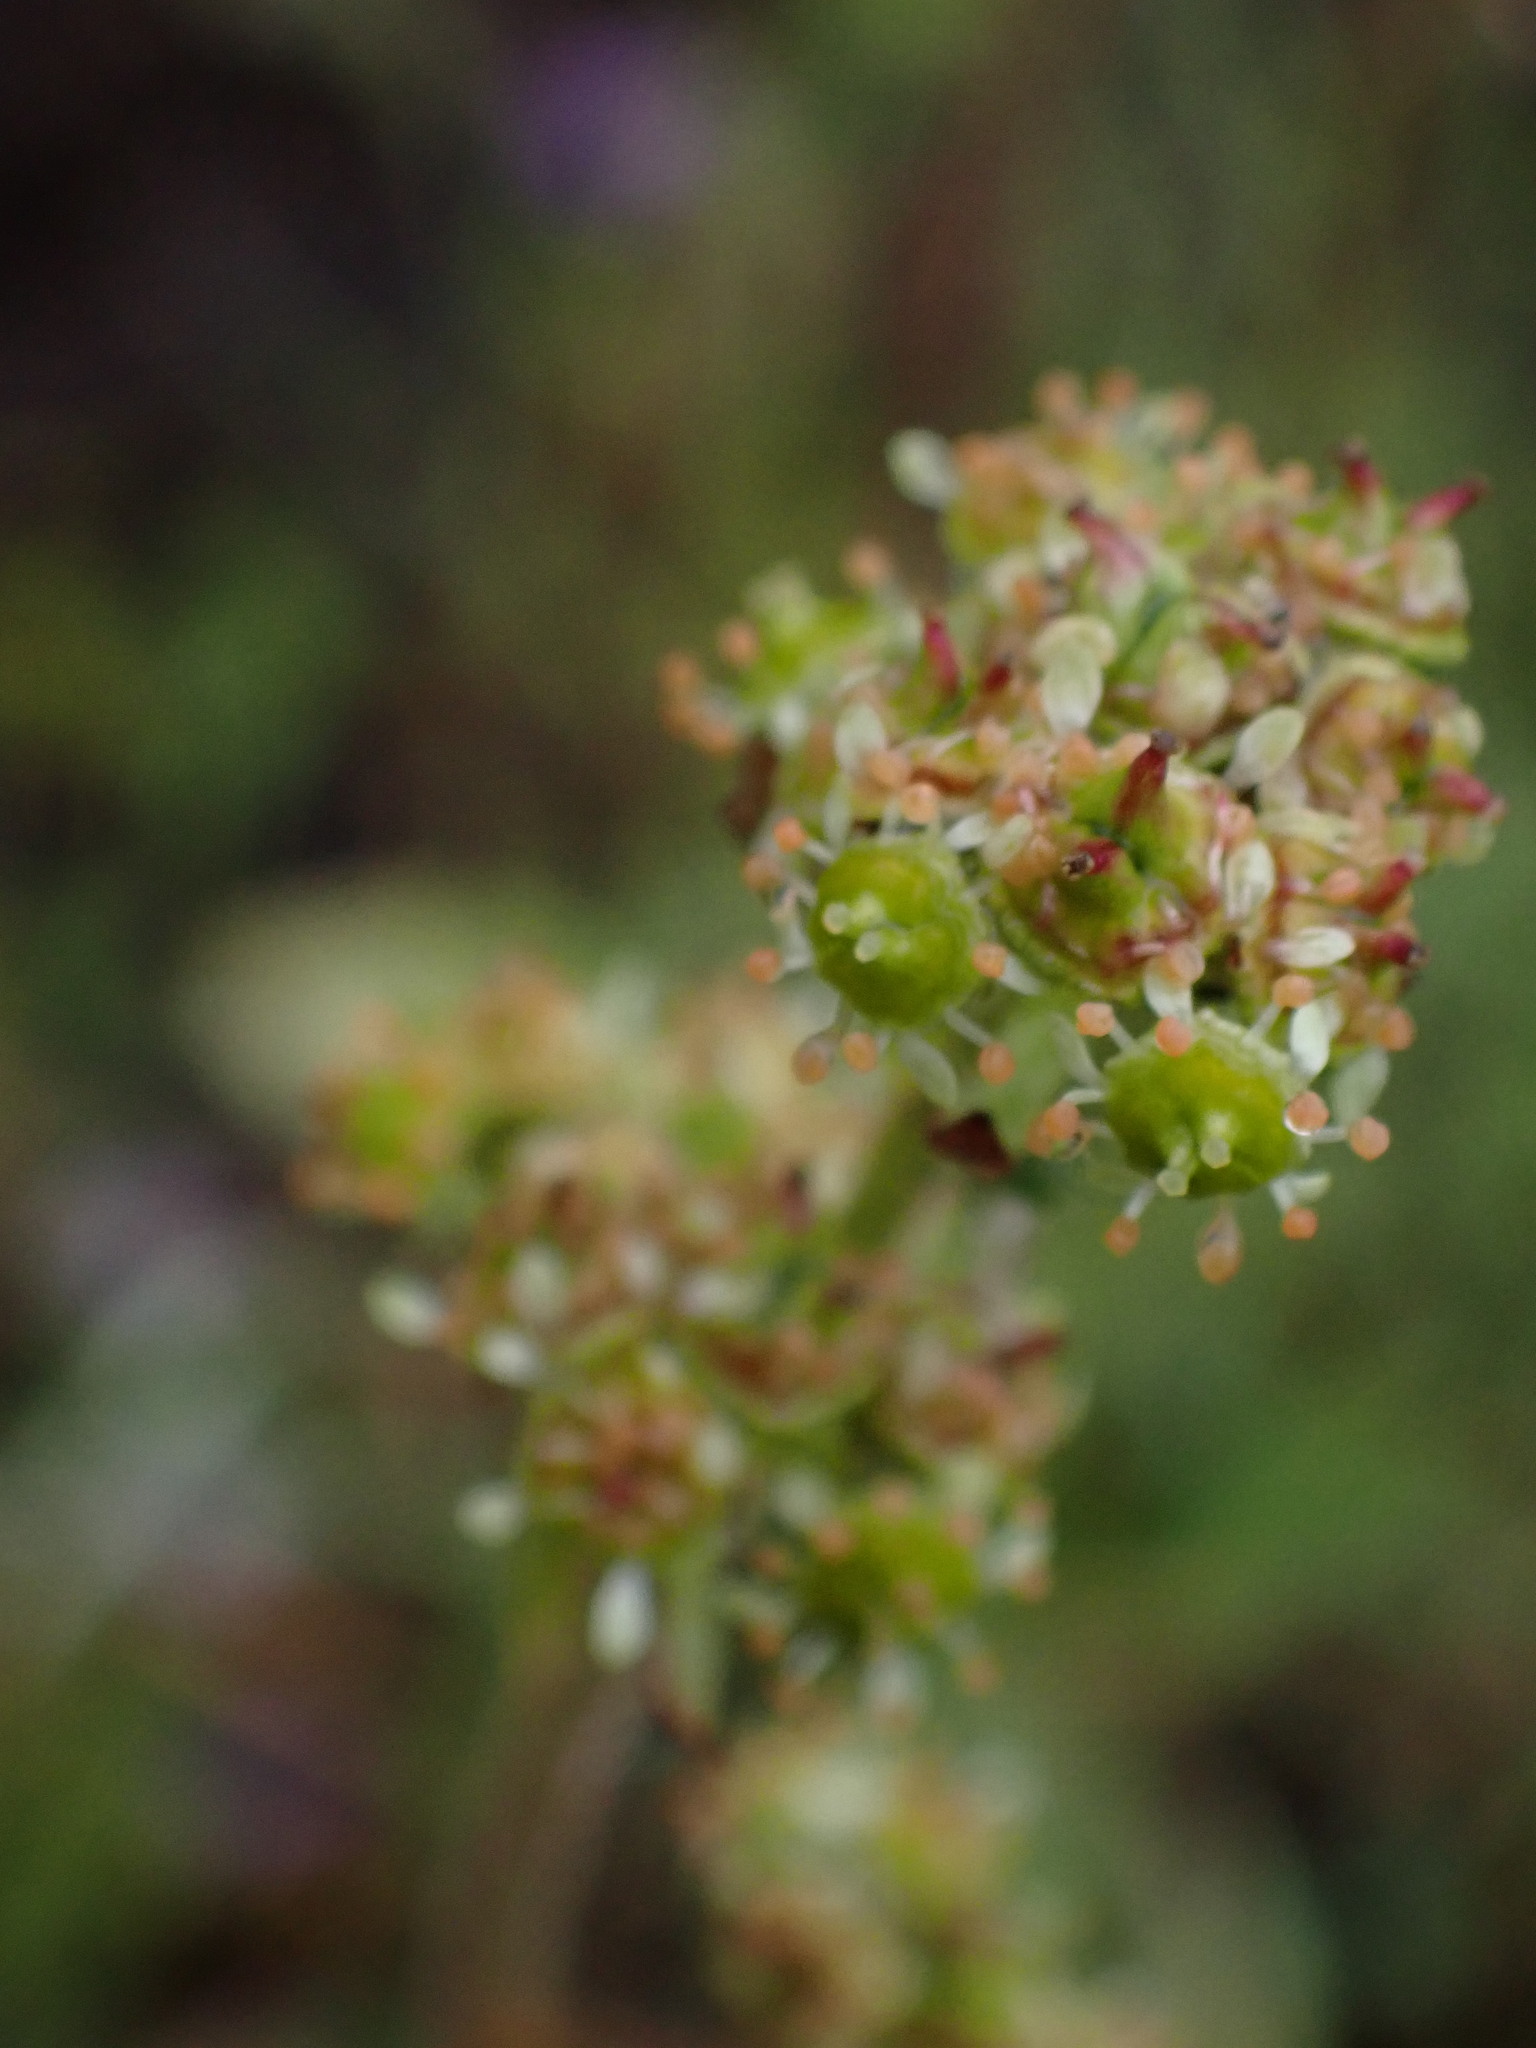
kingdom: Plantae
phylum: Tracheophyta
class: Magnoliopsida
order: Saxifragales
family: Saxifragaceae
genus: Micranthes
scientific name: Micranthes nidifica
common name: Peak saxifrage
